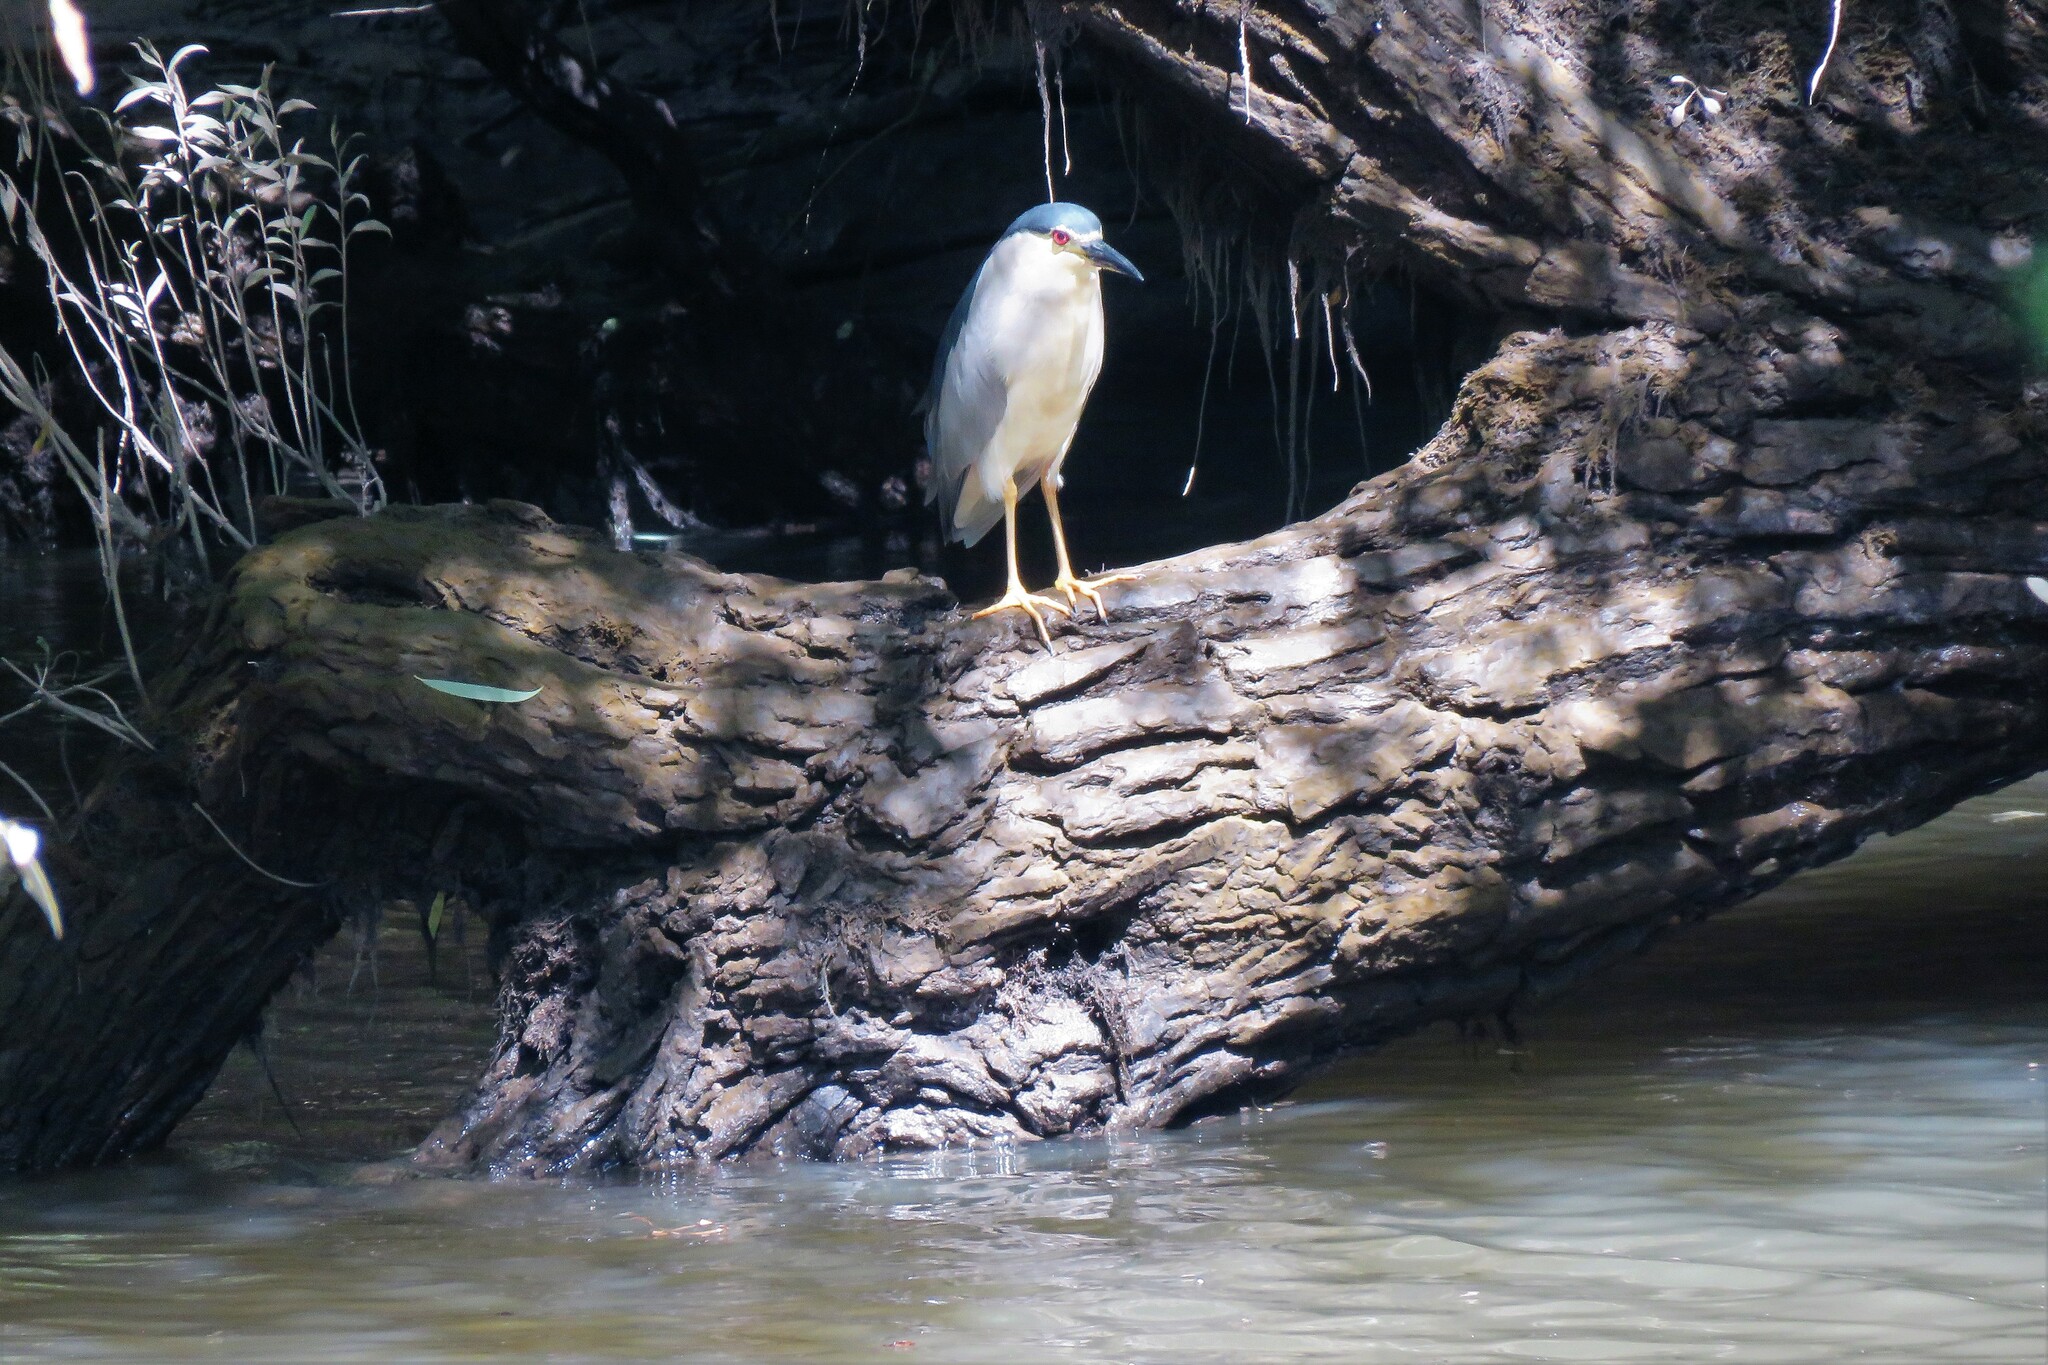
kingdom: Animalia
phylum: Chordata
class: Aves
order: Pelecaniformes
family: Ardeidae
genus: Nycticorax
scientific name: Nycticorax nycticorax
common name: Black-crowned night heron
